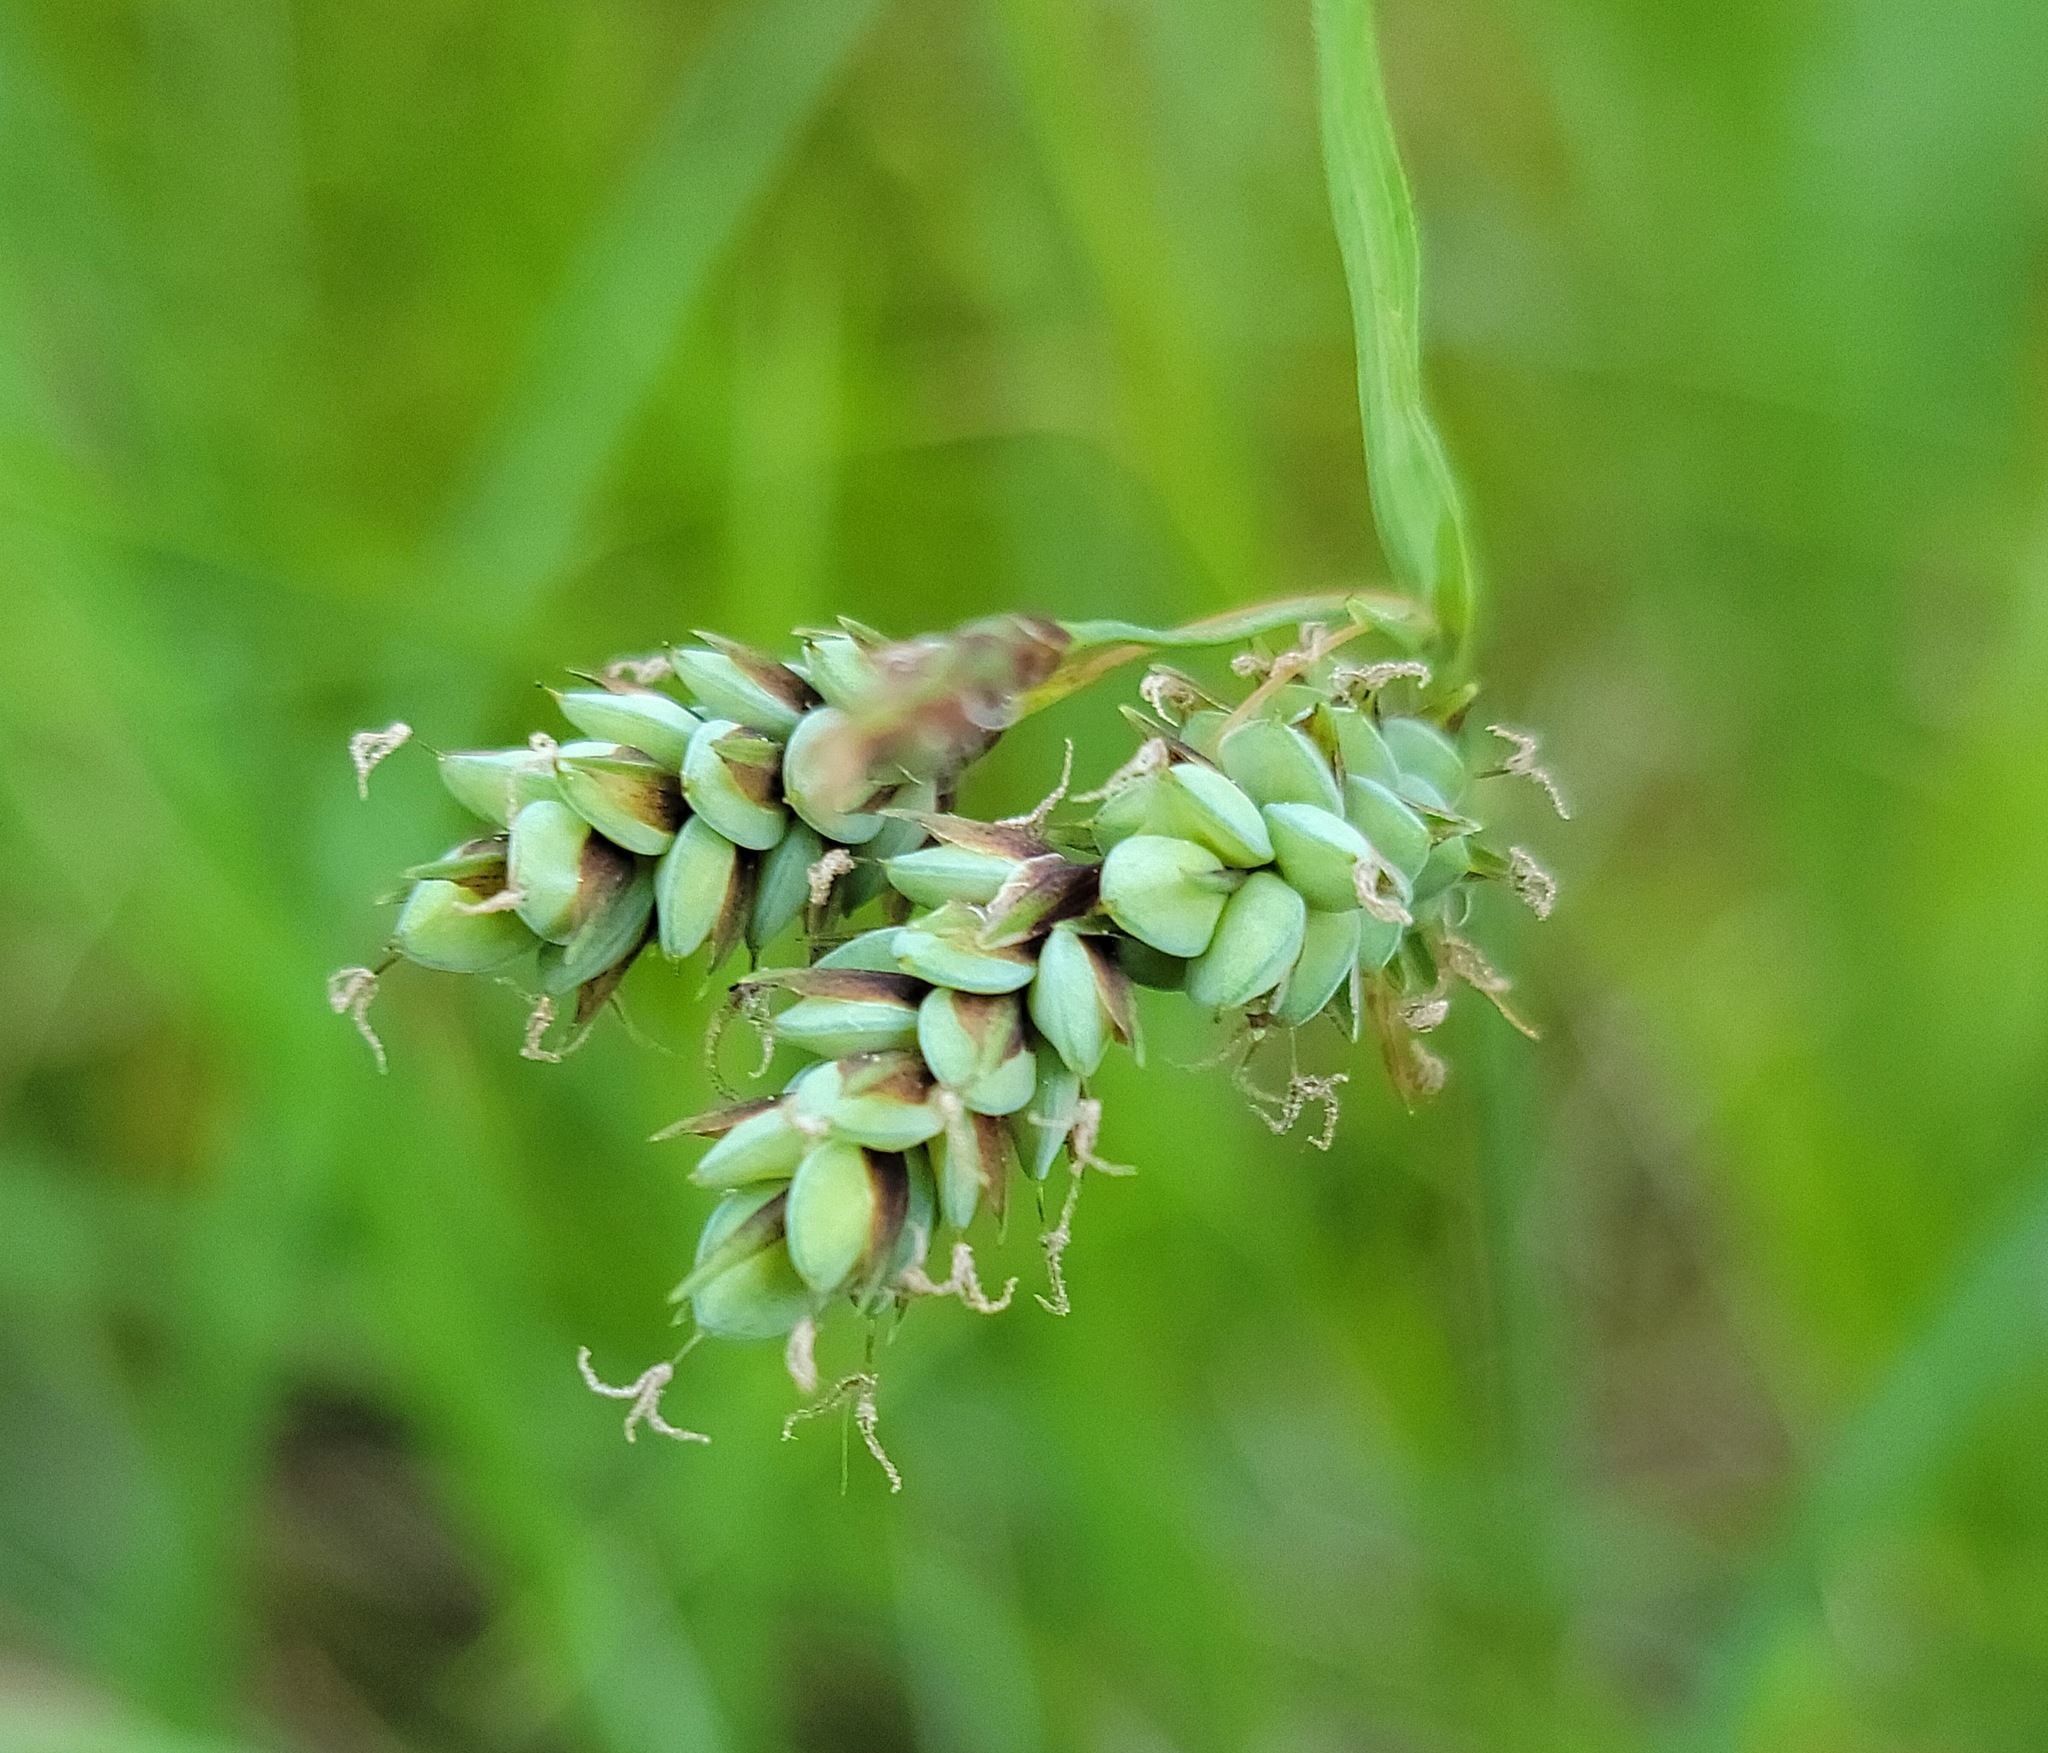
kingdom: Plantae
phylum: Tracheophyta
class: Liliopsida
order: Poales
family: Cyperaceae
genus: Carex
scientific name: Carex magellanica
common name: Bog sedge
